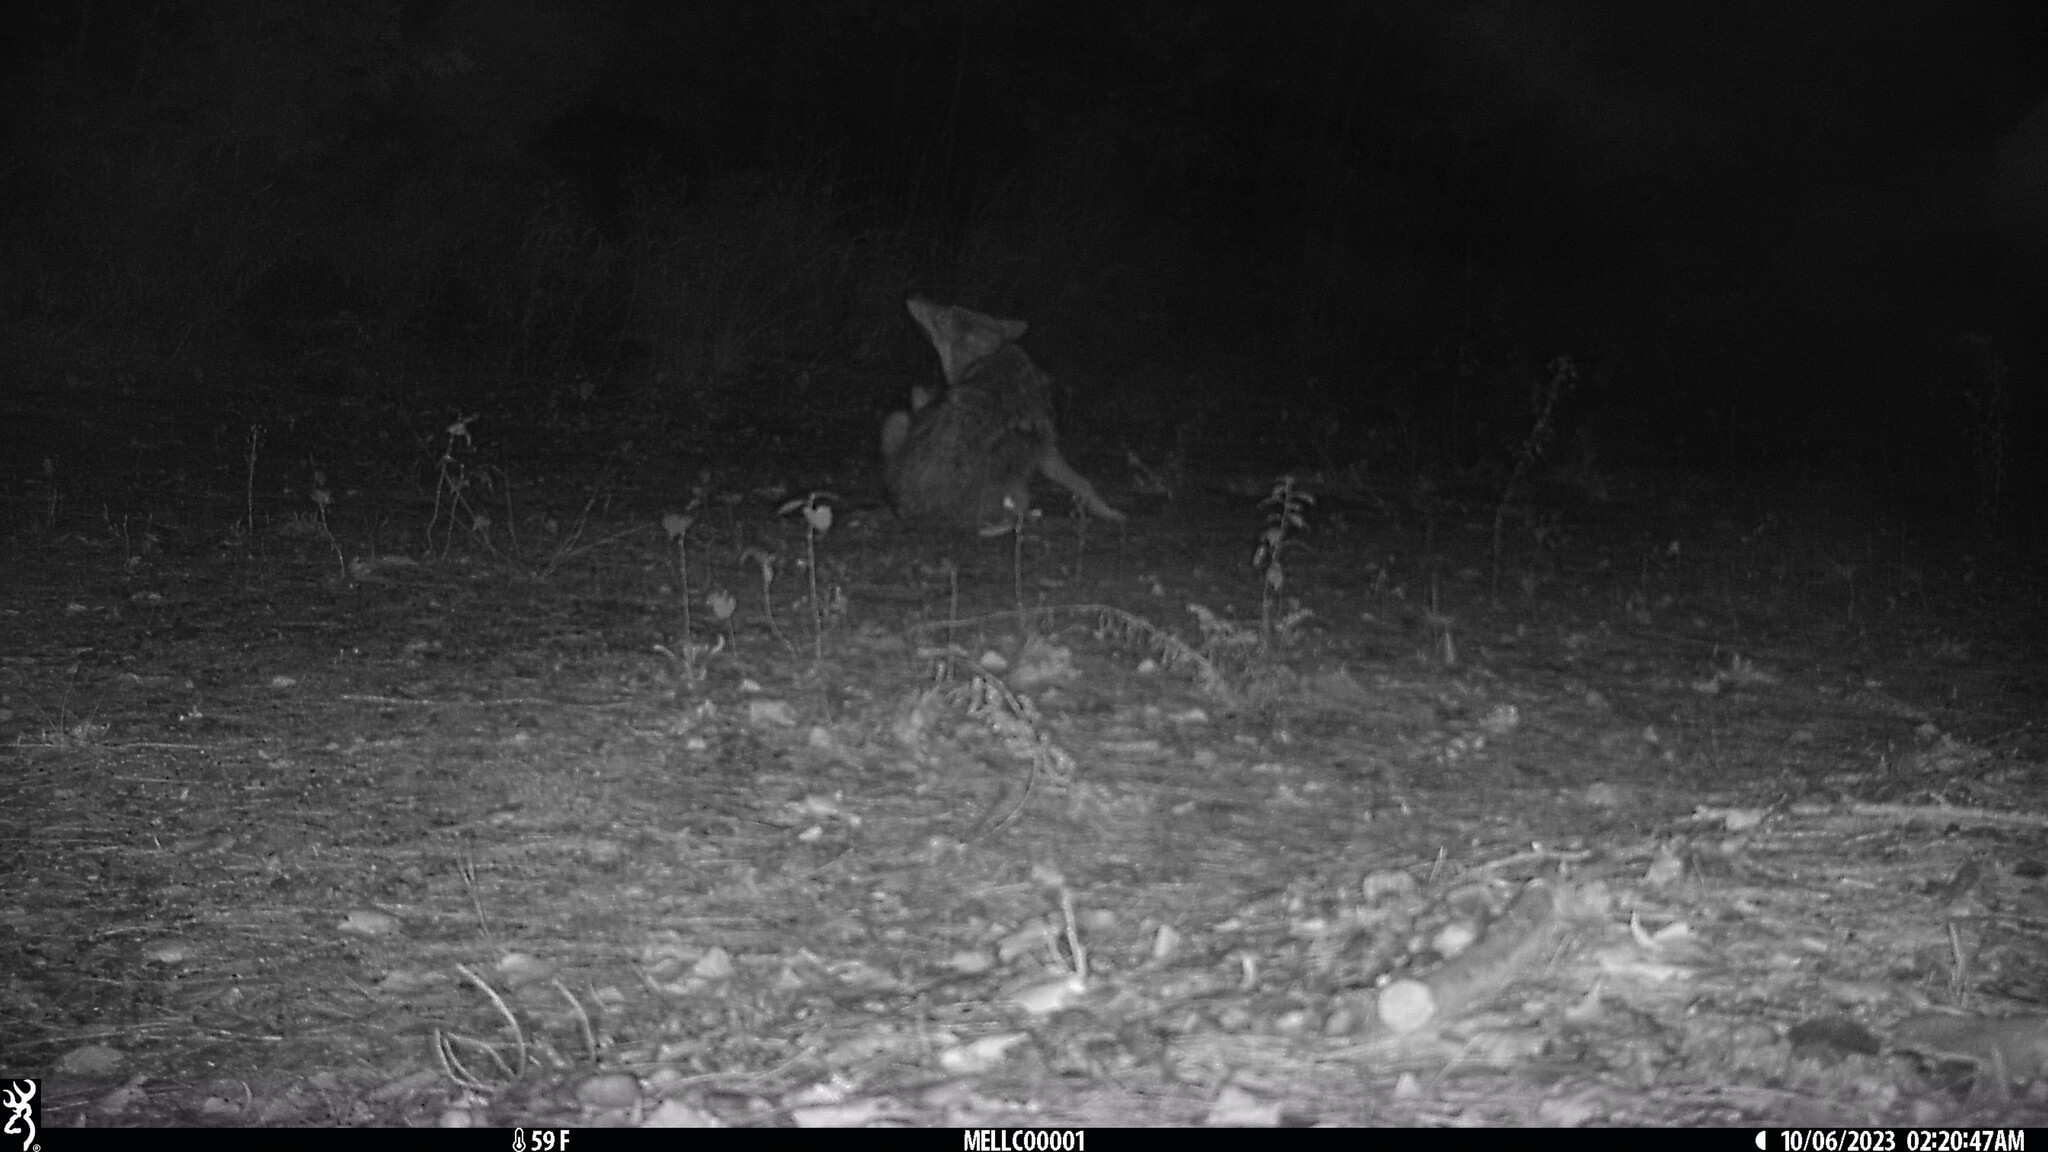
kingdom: Animalia
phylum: Chordata
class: Mammalia
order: Carnivora
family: Canidae
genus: Canis
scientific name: Canis latrans
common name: Coyote
